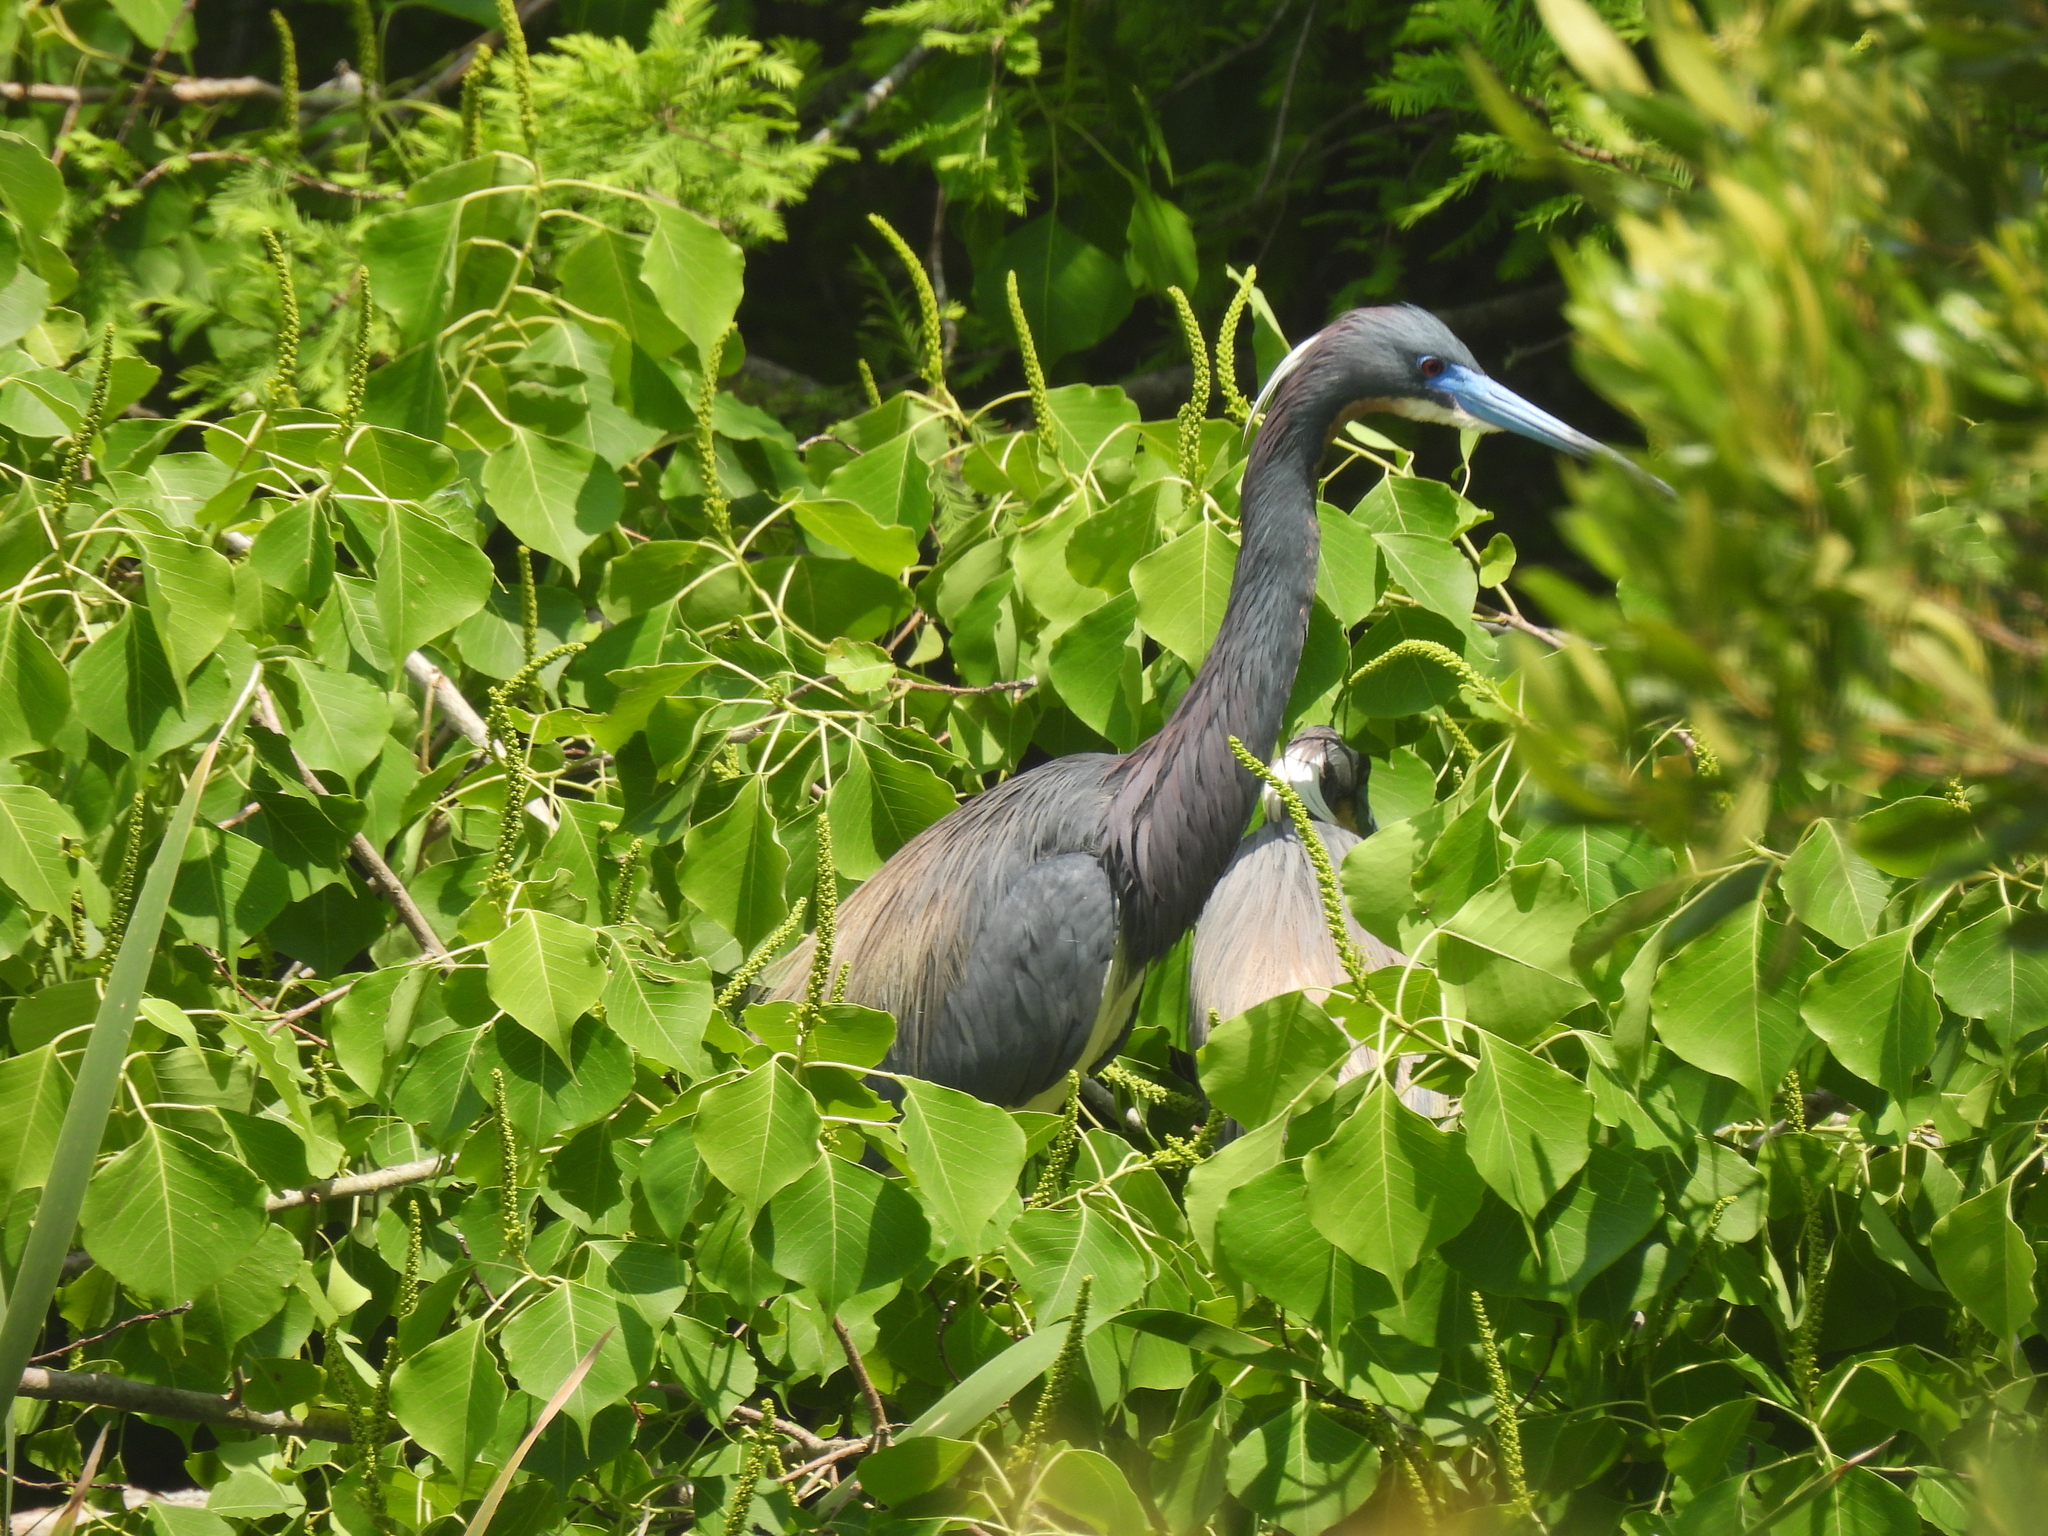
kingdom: Animalia
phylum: Chordata
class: Aves
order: Pelecaniformes
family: Ardeidae
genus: Egretta
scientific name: Egretta tricolor
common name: Tricolored heron
